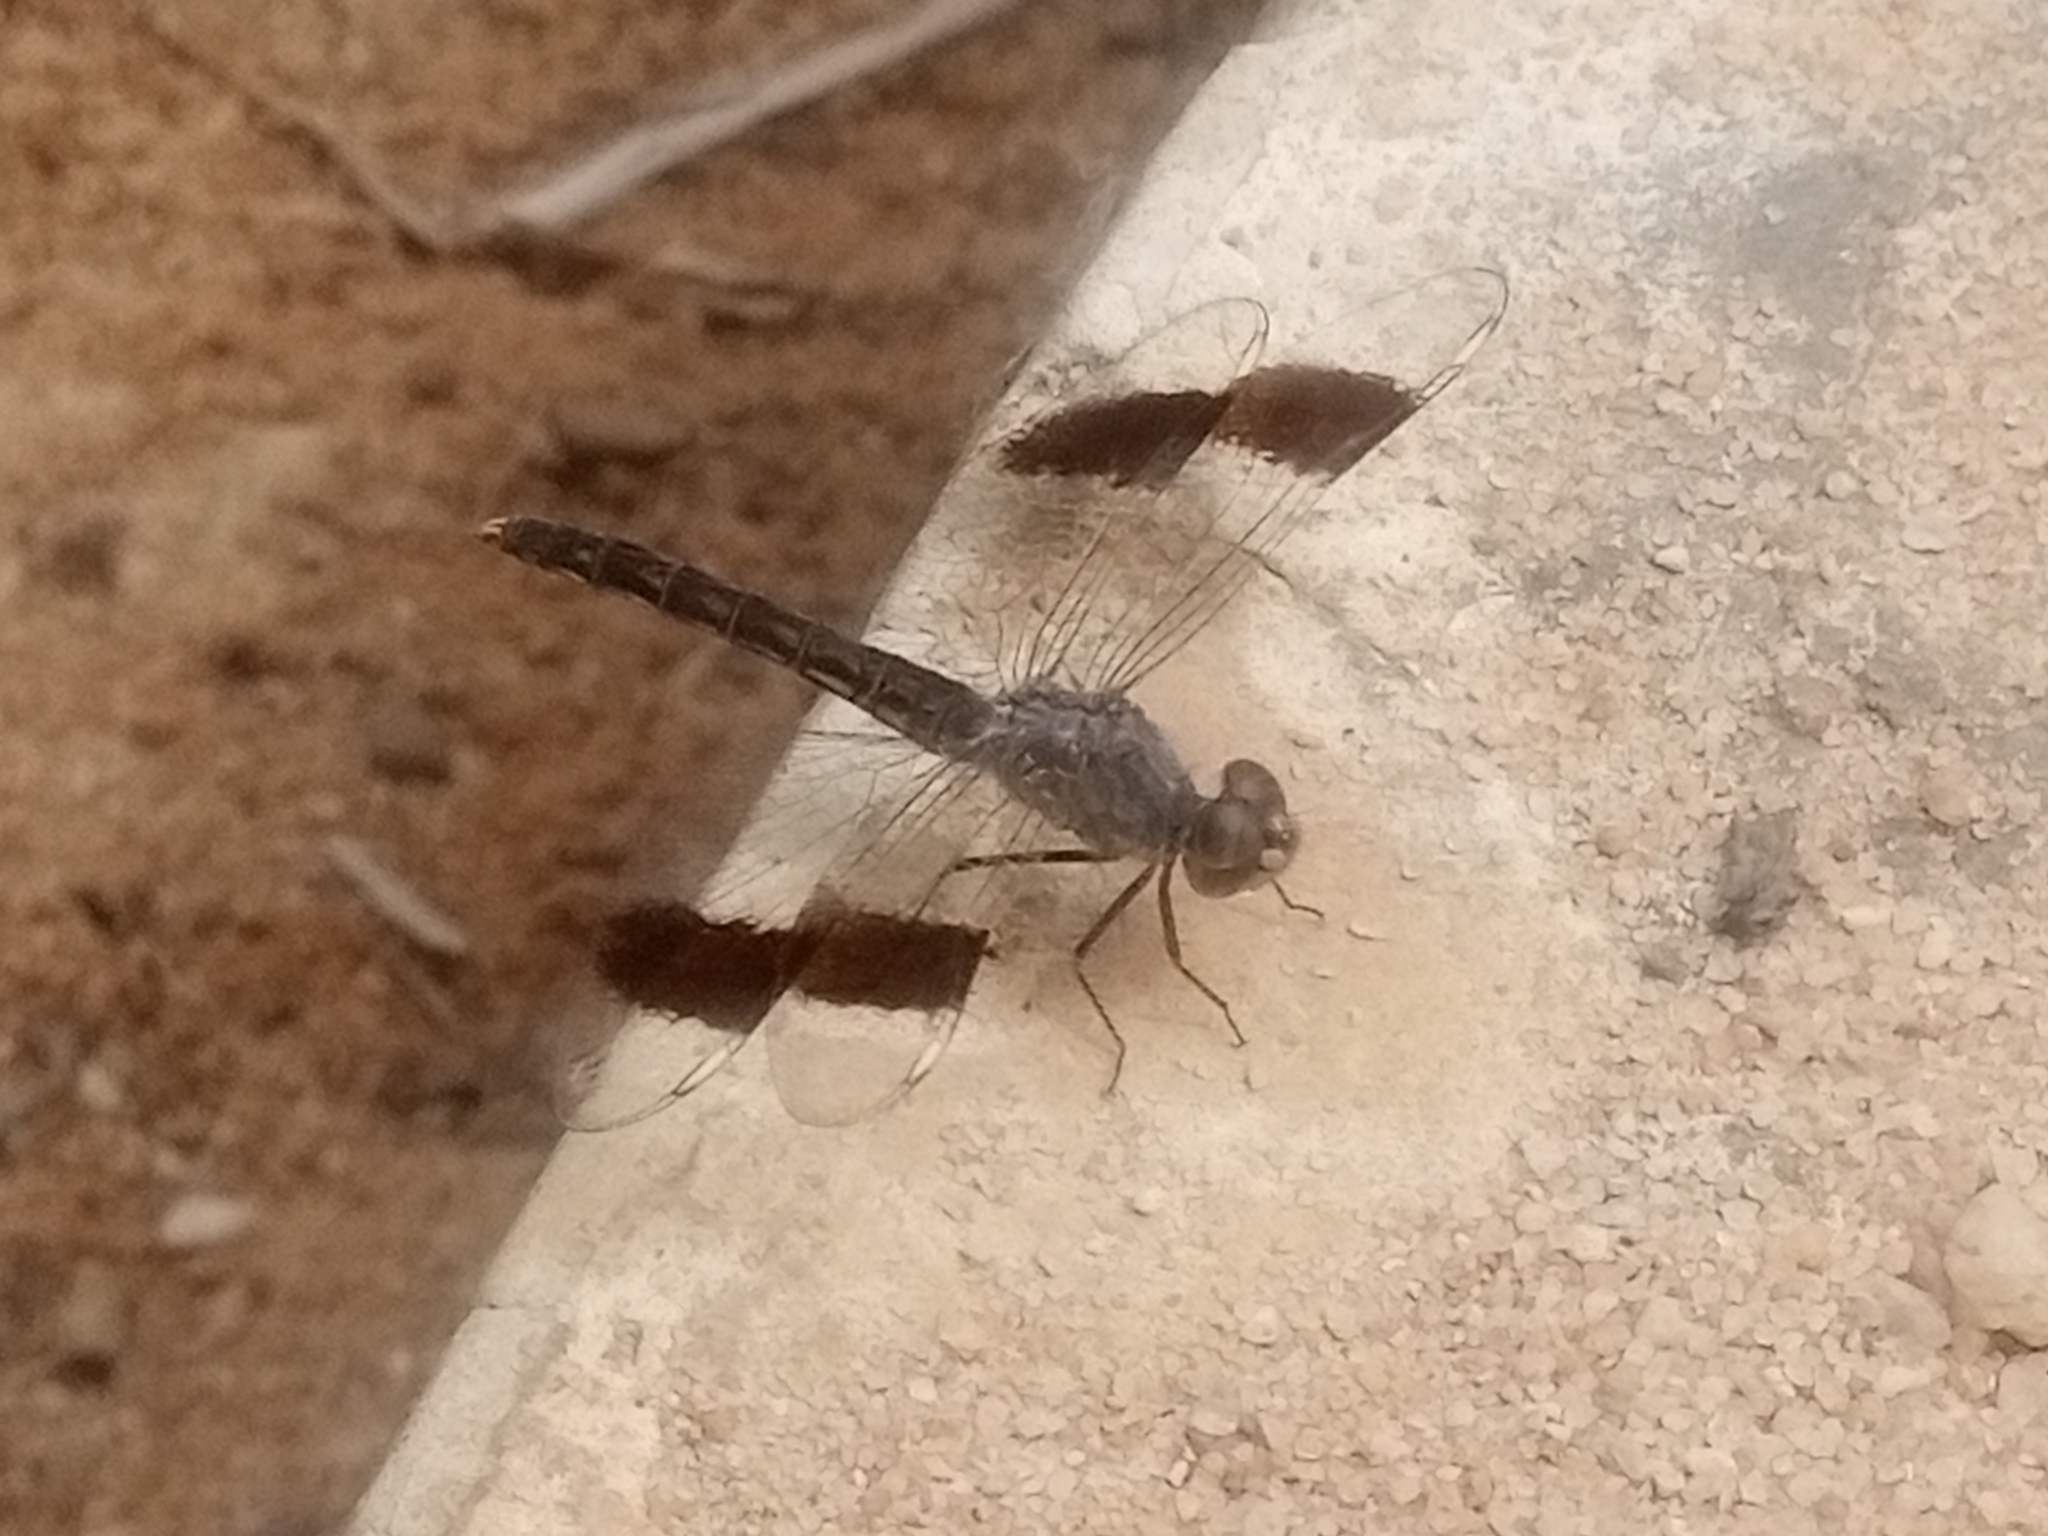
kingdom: Animalia
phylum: Arthropoda
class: Insecta
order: Odonata
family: Libellulidae
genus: Brachythemis
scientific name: Brachythemis impartita
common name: Banded groundling
